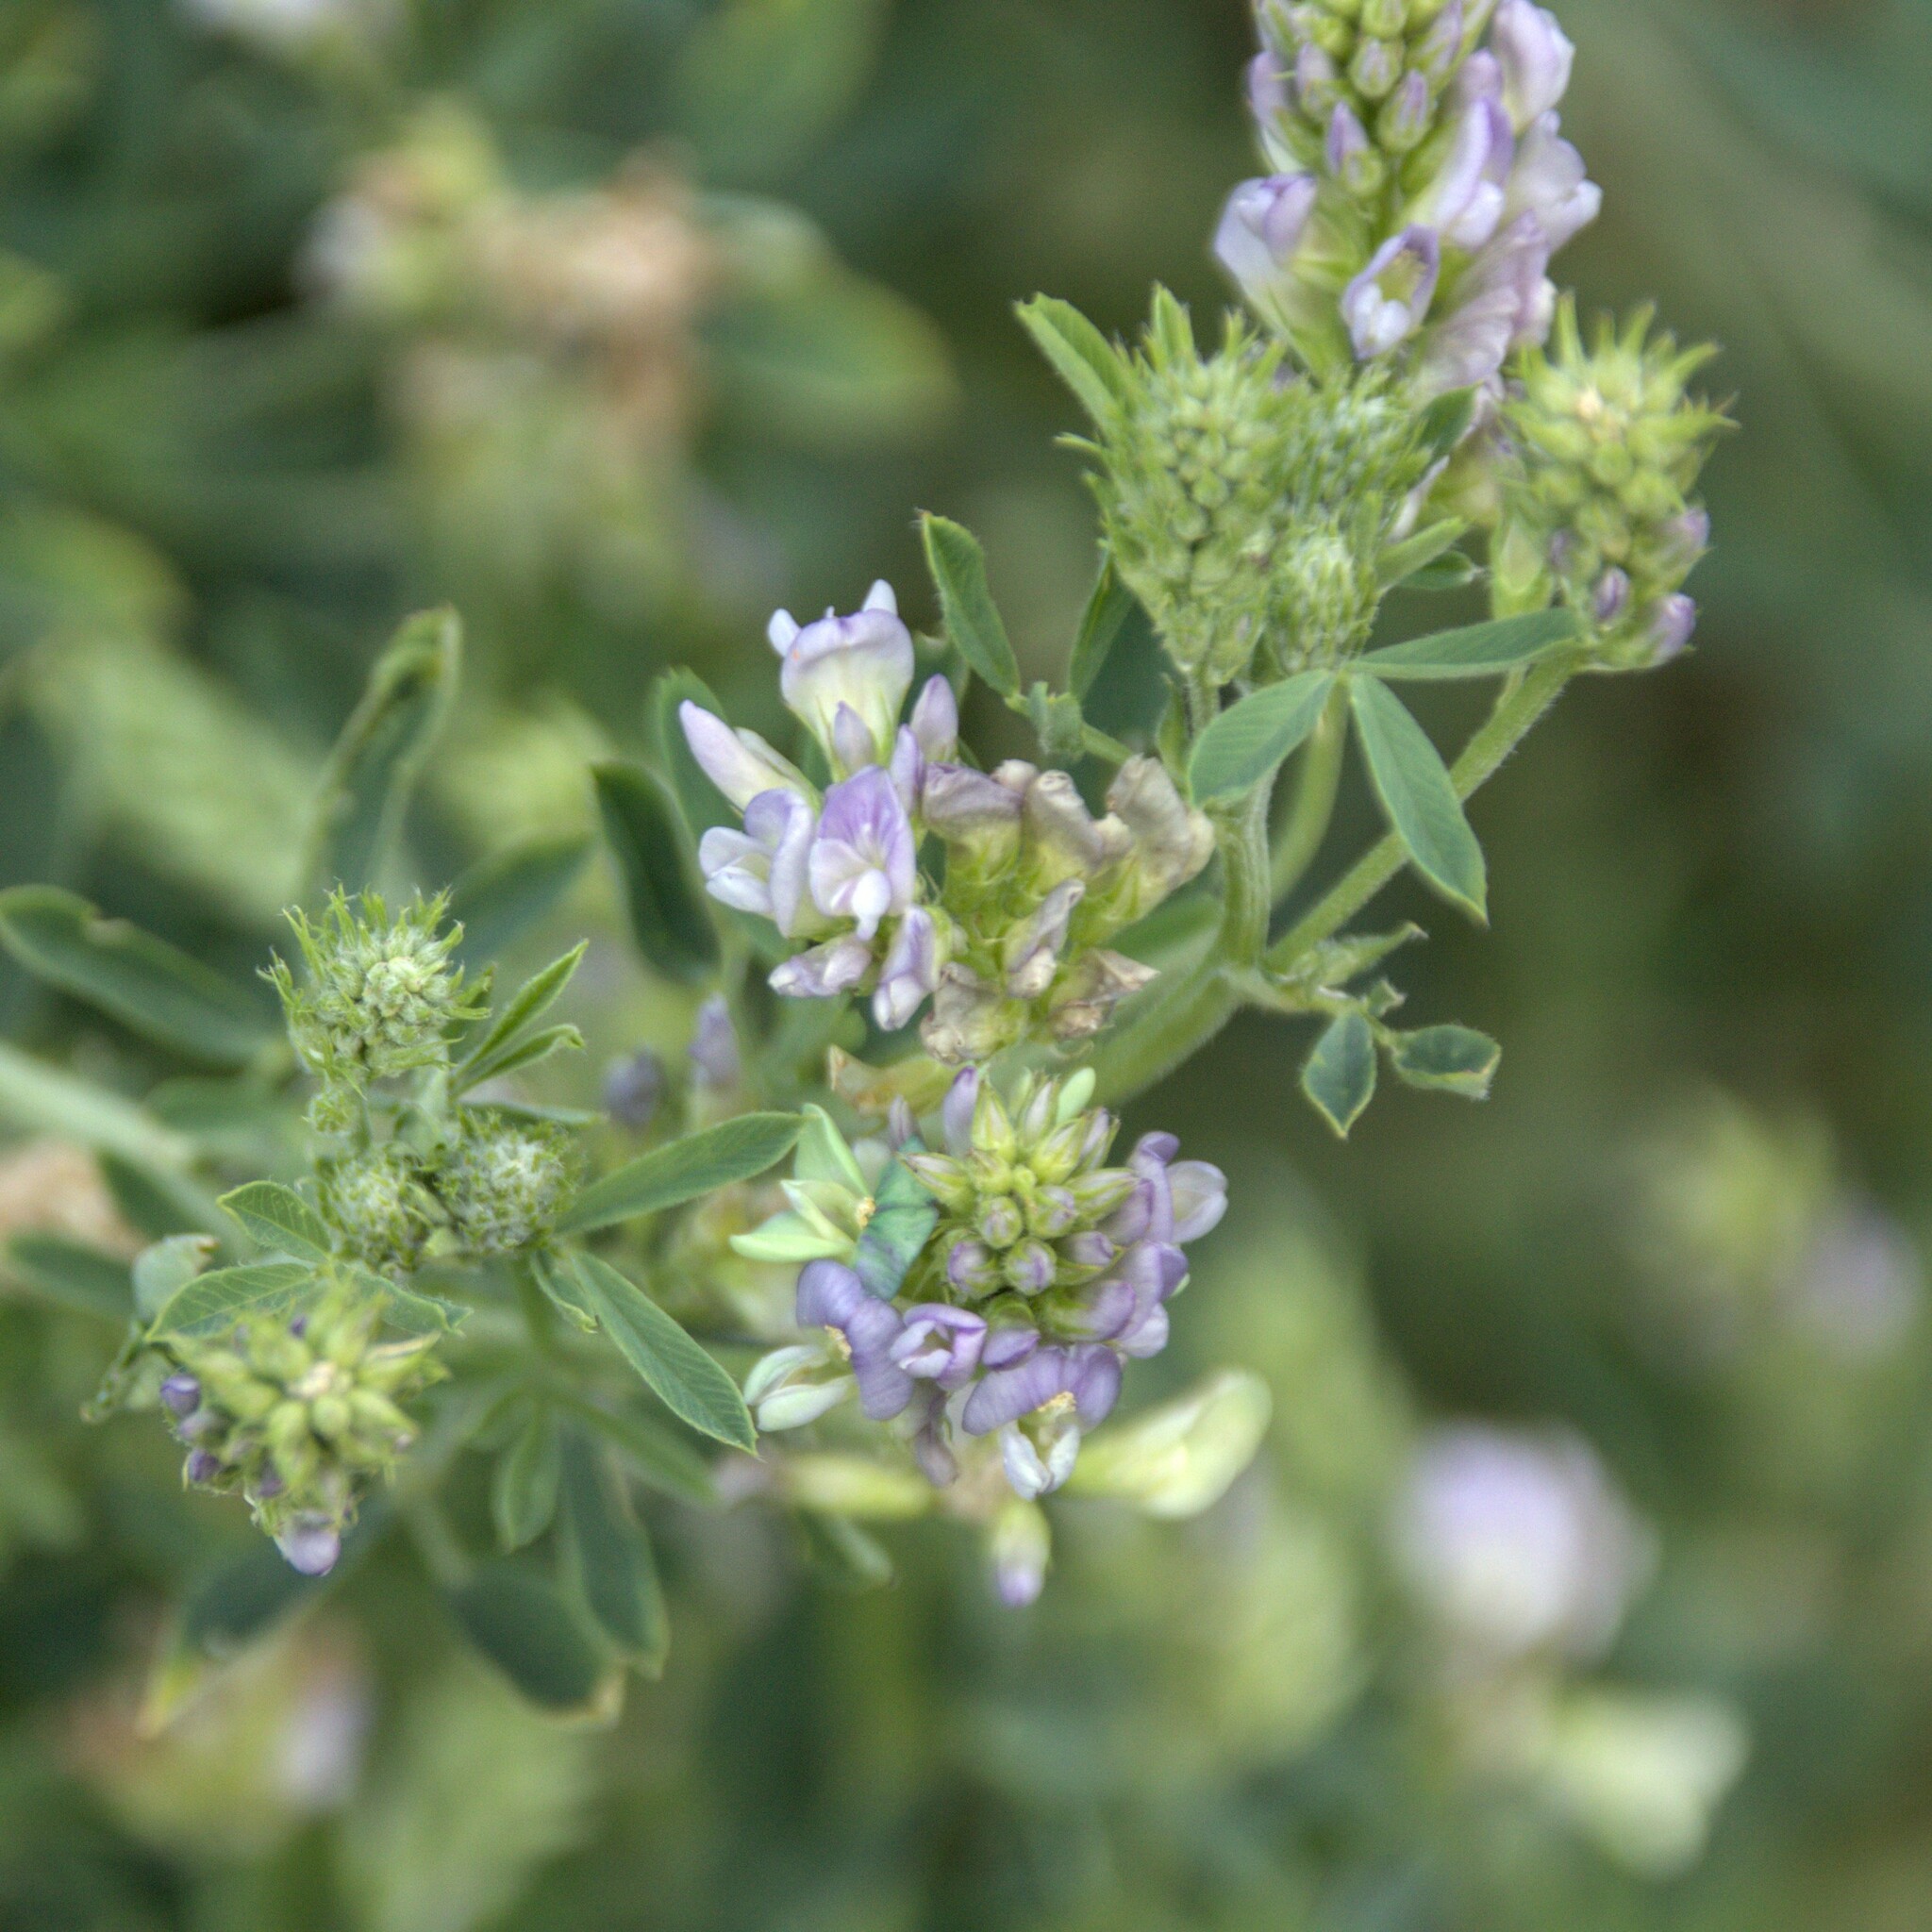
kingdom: Plantae
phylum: Tracheophyta
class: Magnoliopsida
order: Fabales
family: Fabaceae
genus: Medicago
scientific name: Medicago sativa
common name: Alfalfa
